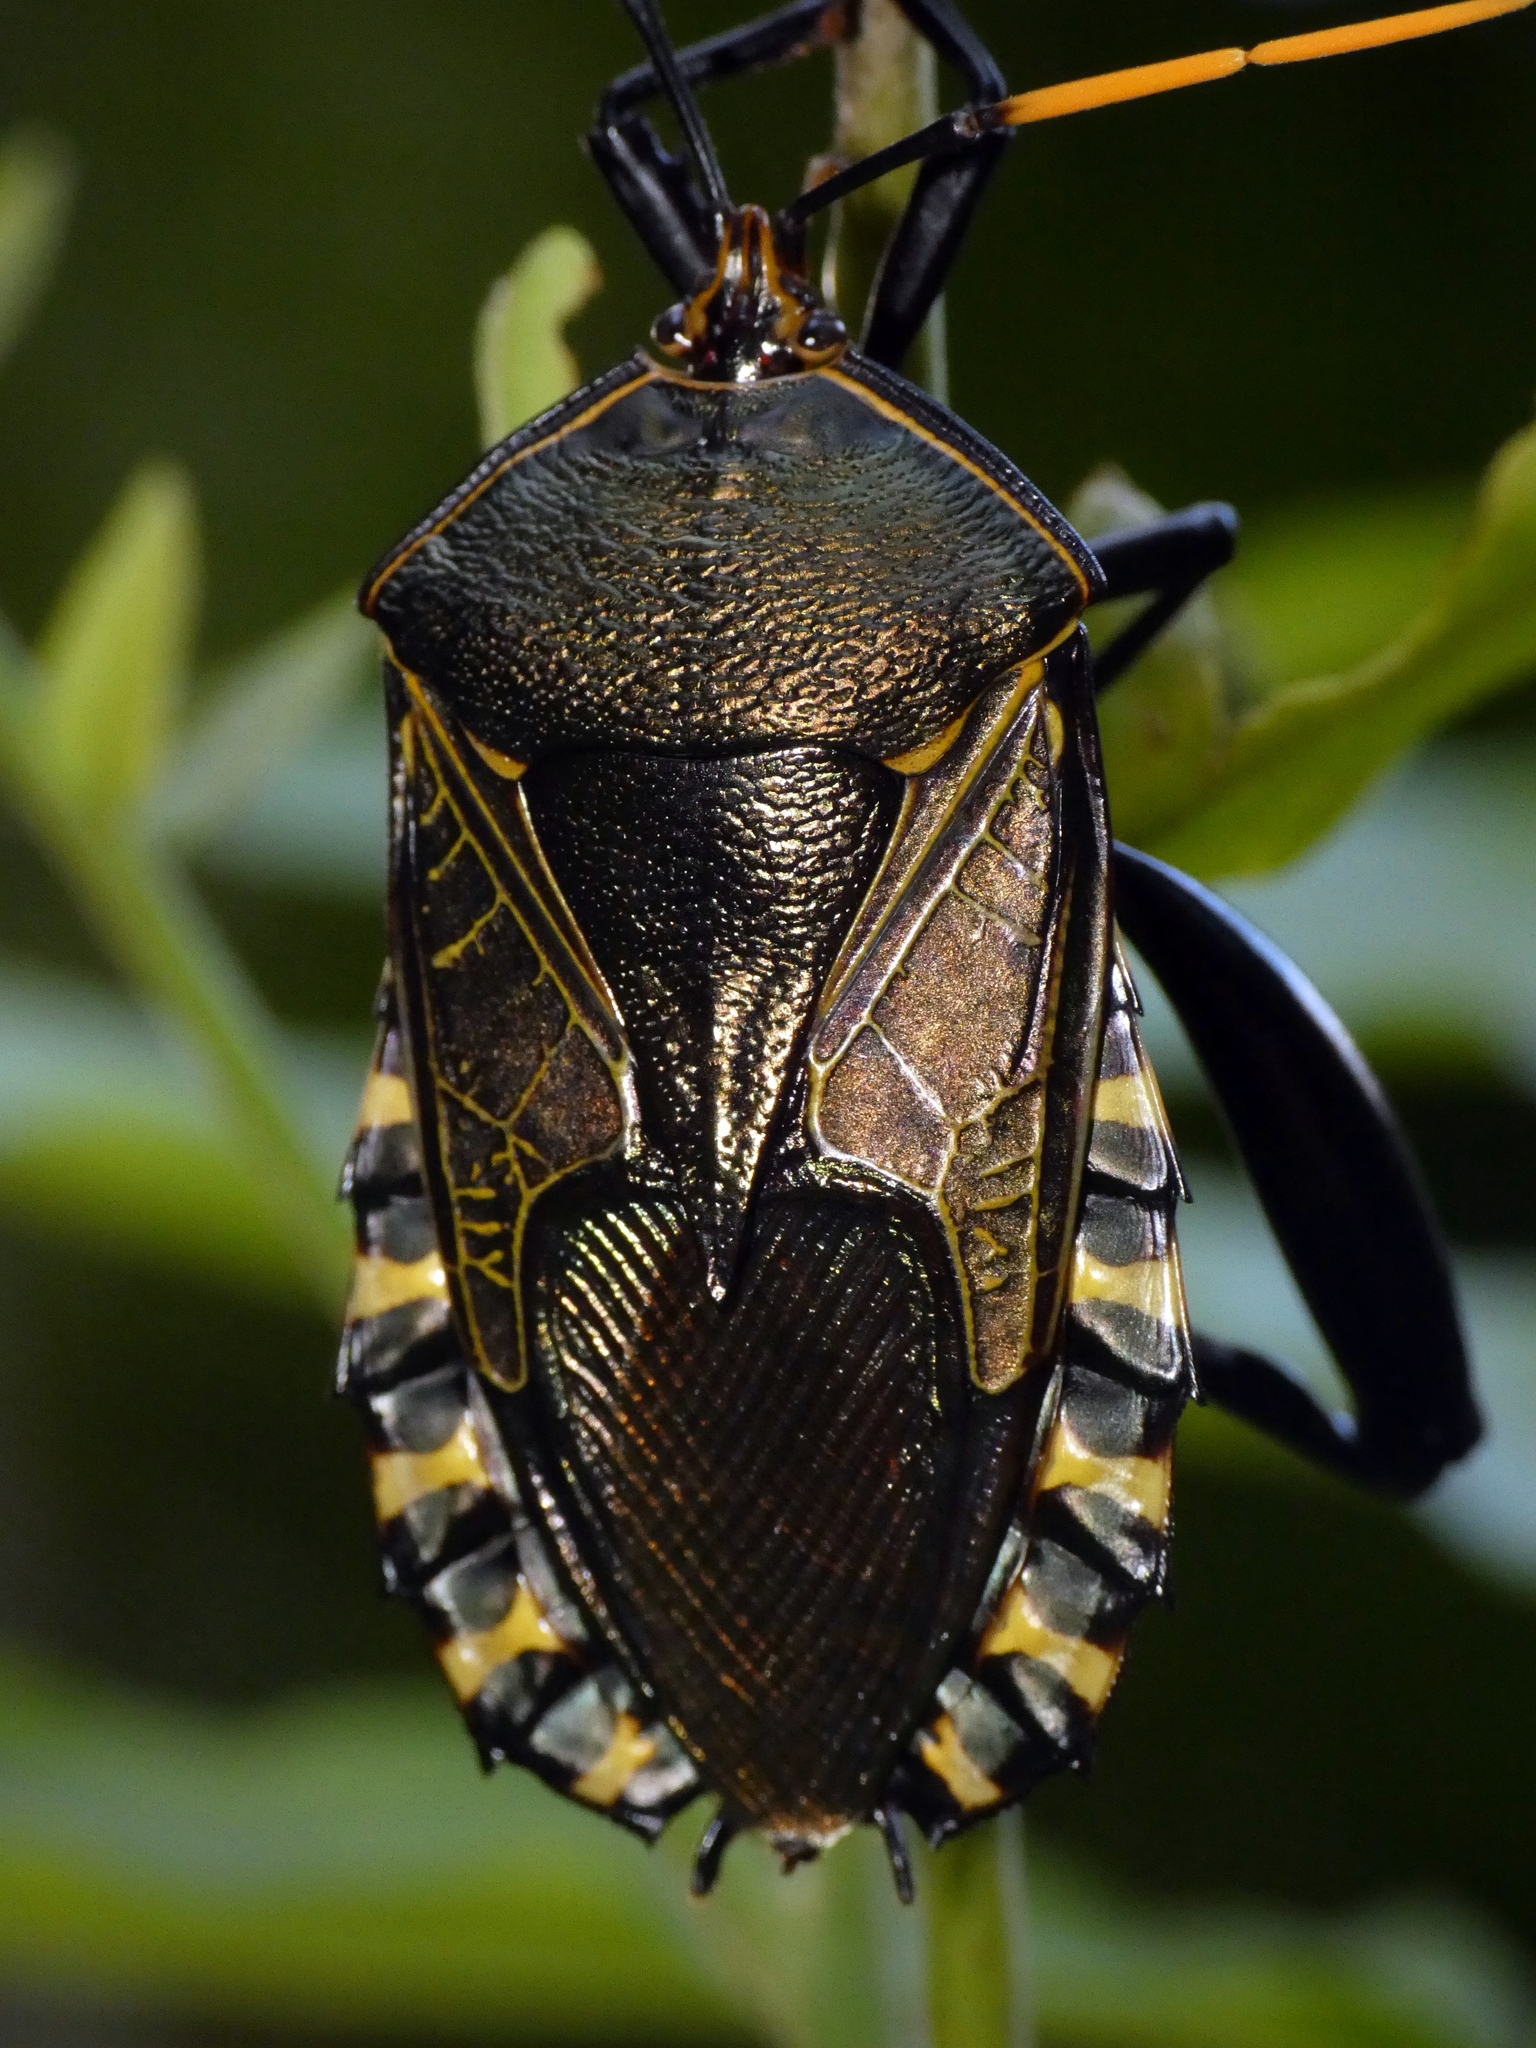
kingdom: Animalia
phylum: Arthropoda
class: Insecta
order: Hemiptera
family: Tessaratomidae
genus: Plisthenes
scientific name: Plisthenes australis
